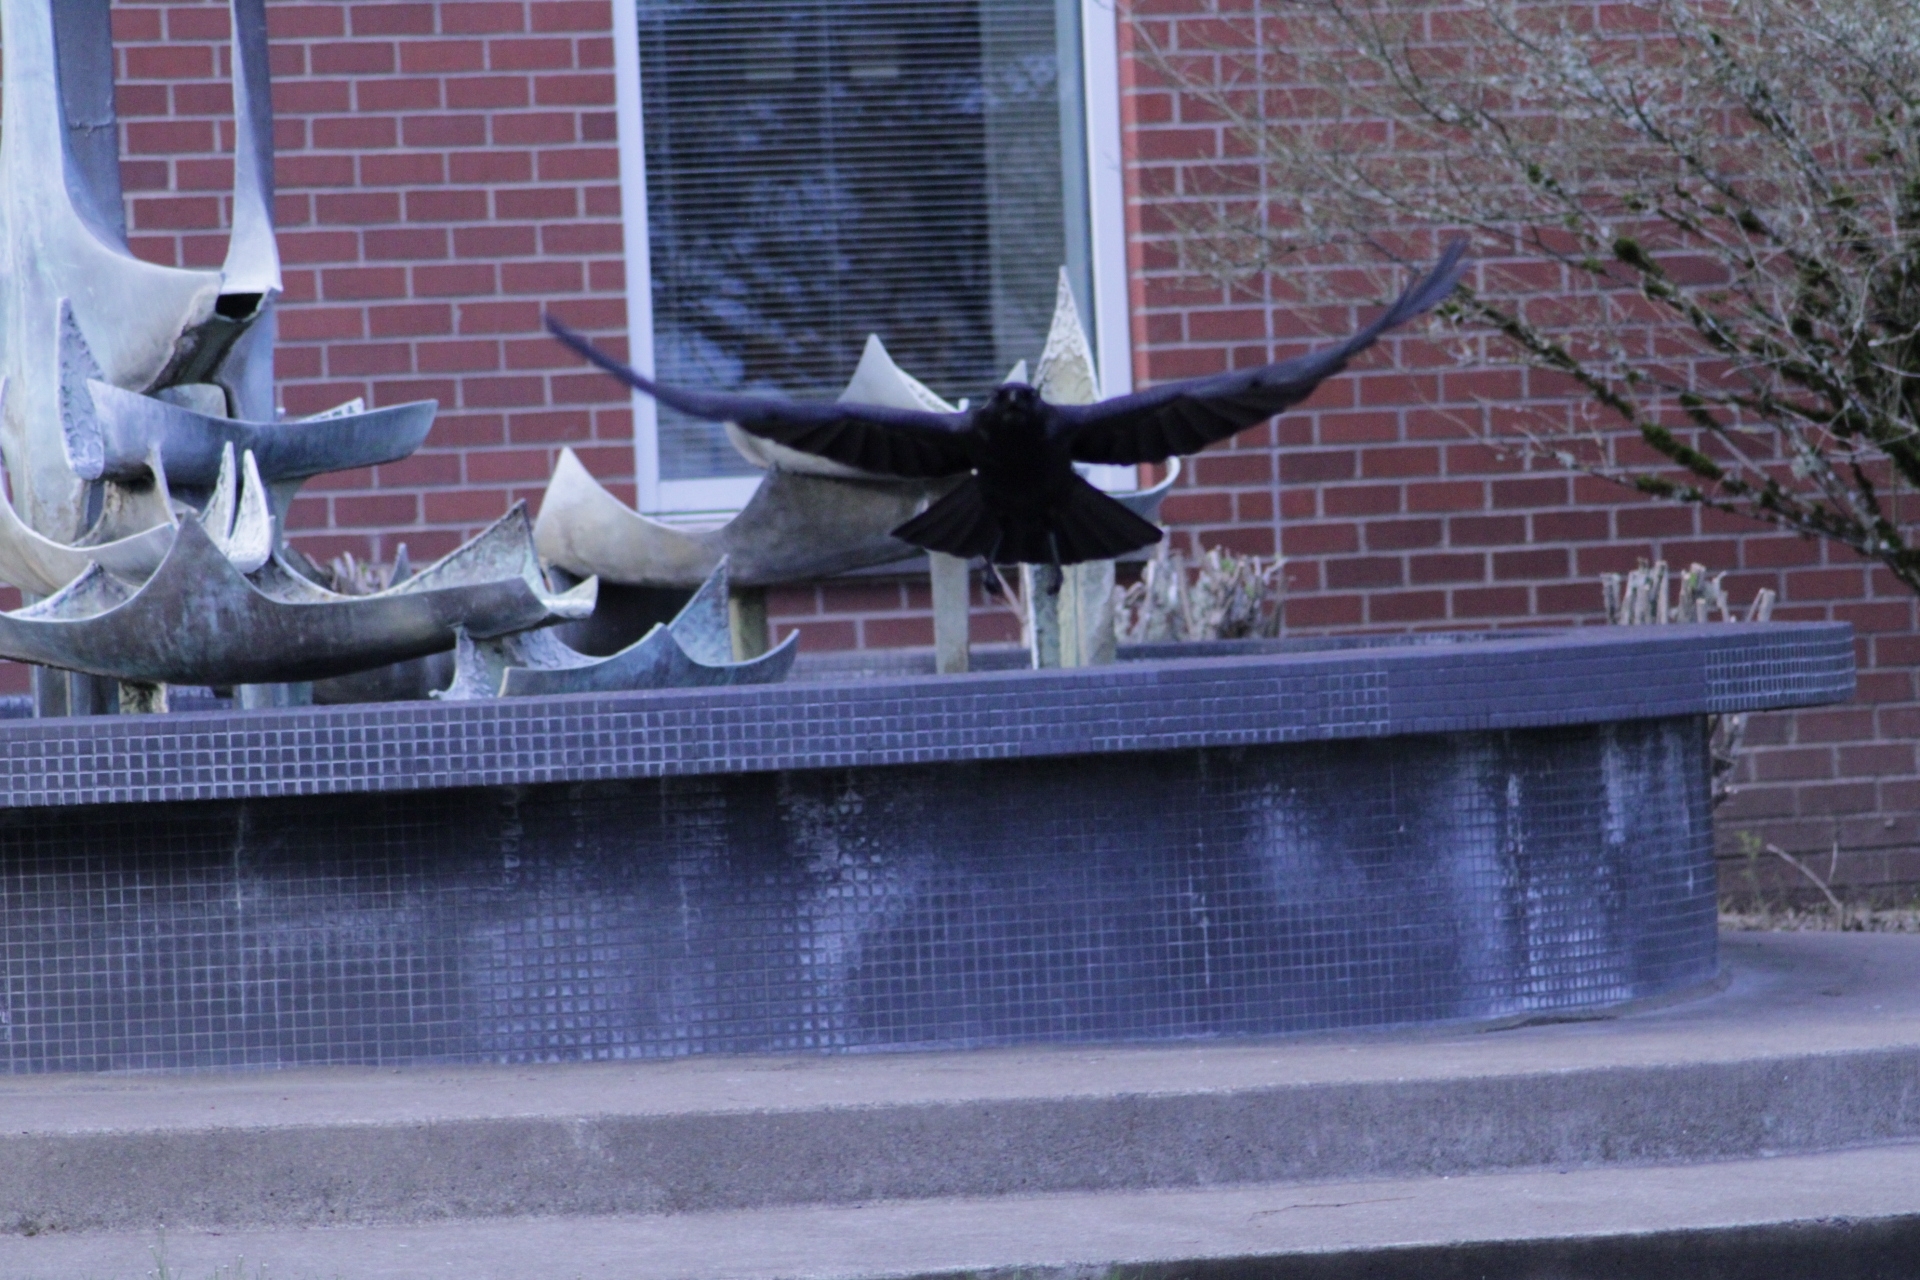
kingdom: Animalia
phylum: Chordata
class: Aves
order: Passeriformes
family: Corvidae
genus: Corvus
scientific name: Corvus brachyrhynchos
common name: American crow
